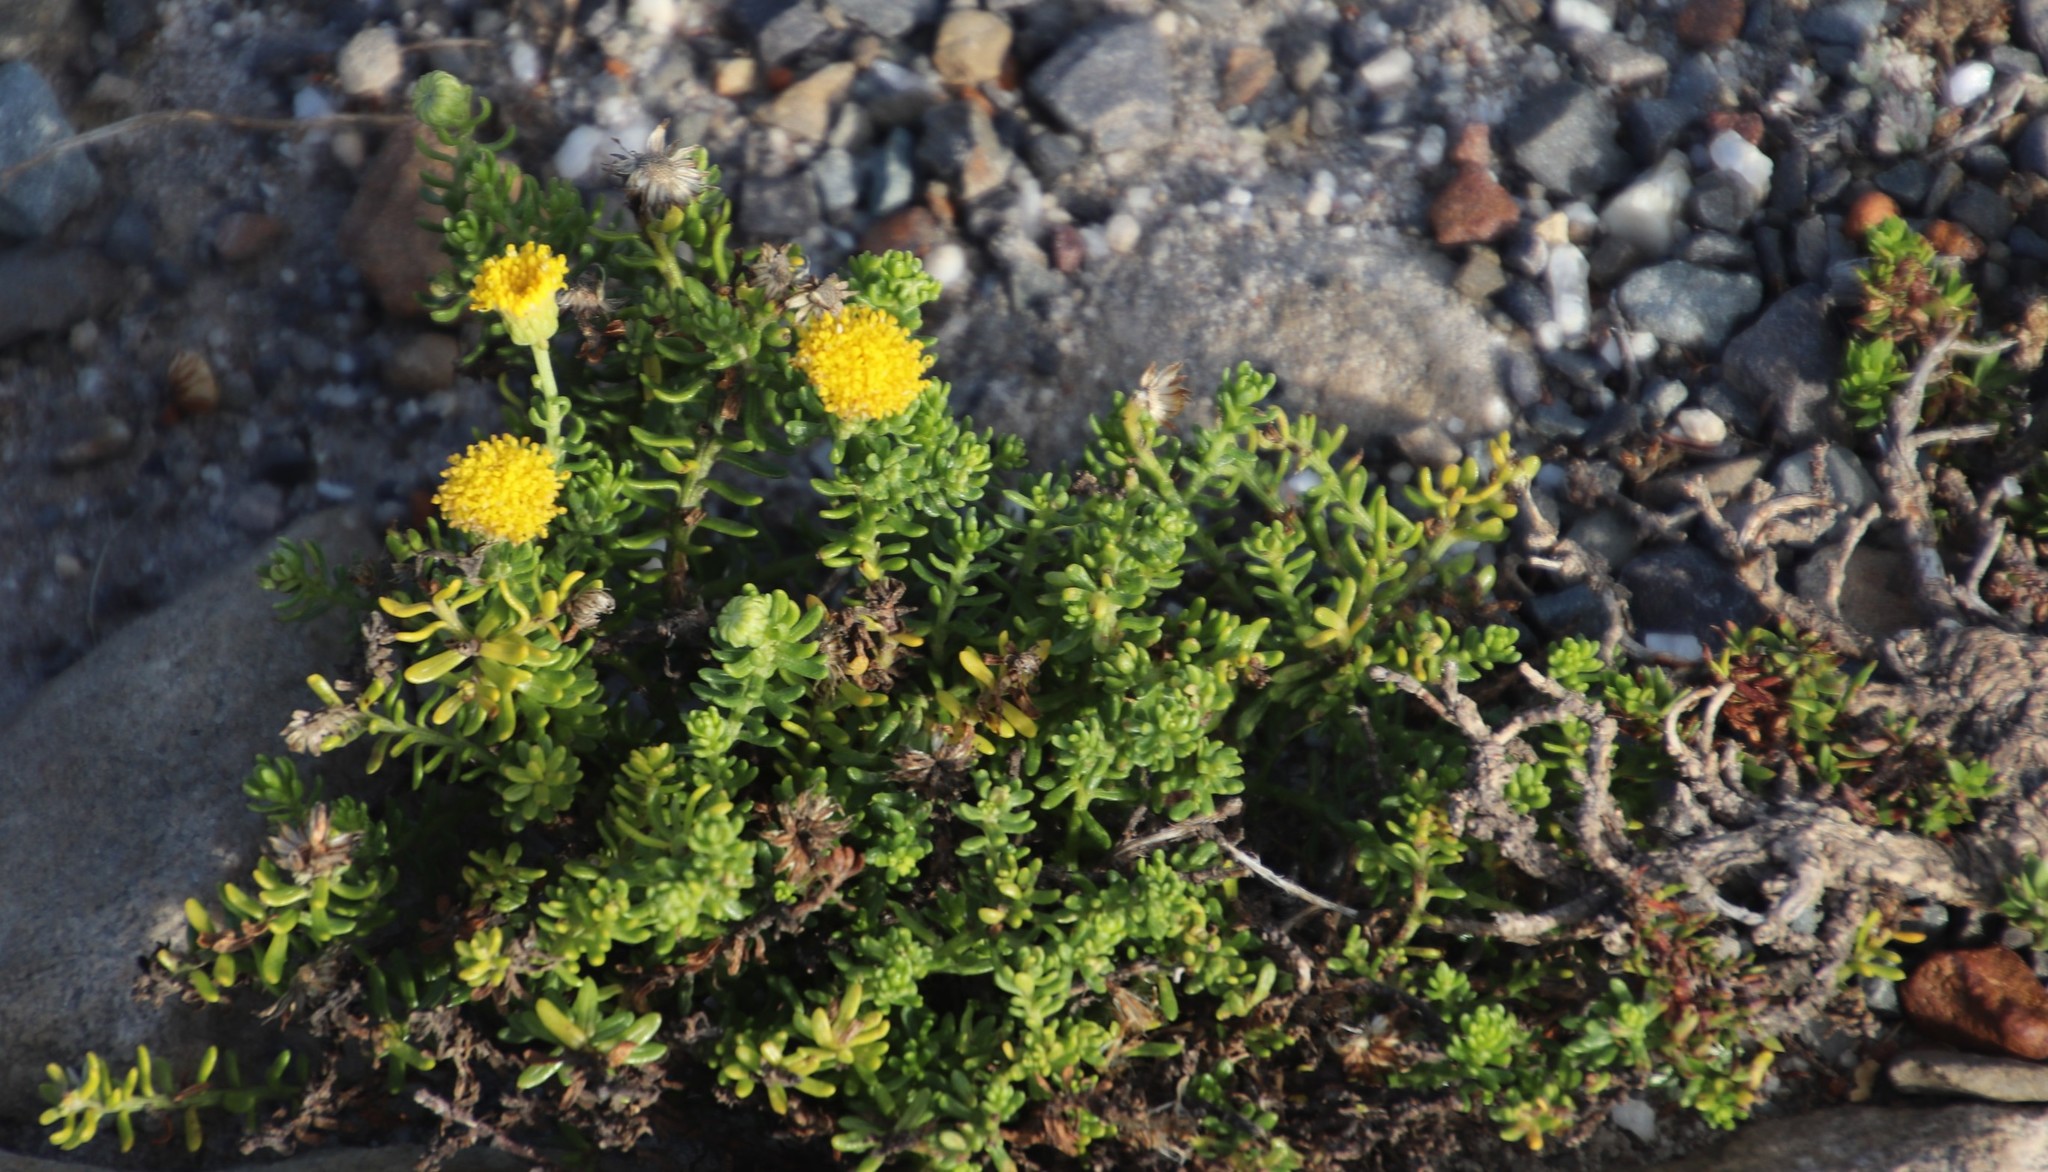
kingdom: Plantae
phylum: Tracheophyta
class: Magnoliopsida
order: Asterales
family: Asteraceae
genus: Chrysocoma
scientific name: Chrysocoma cernua
